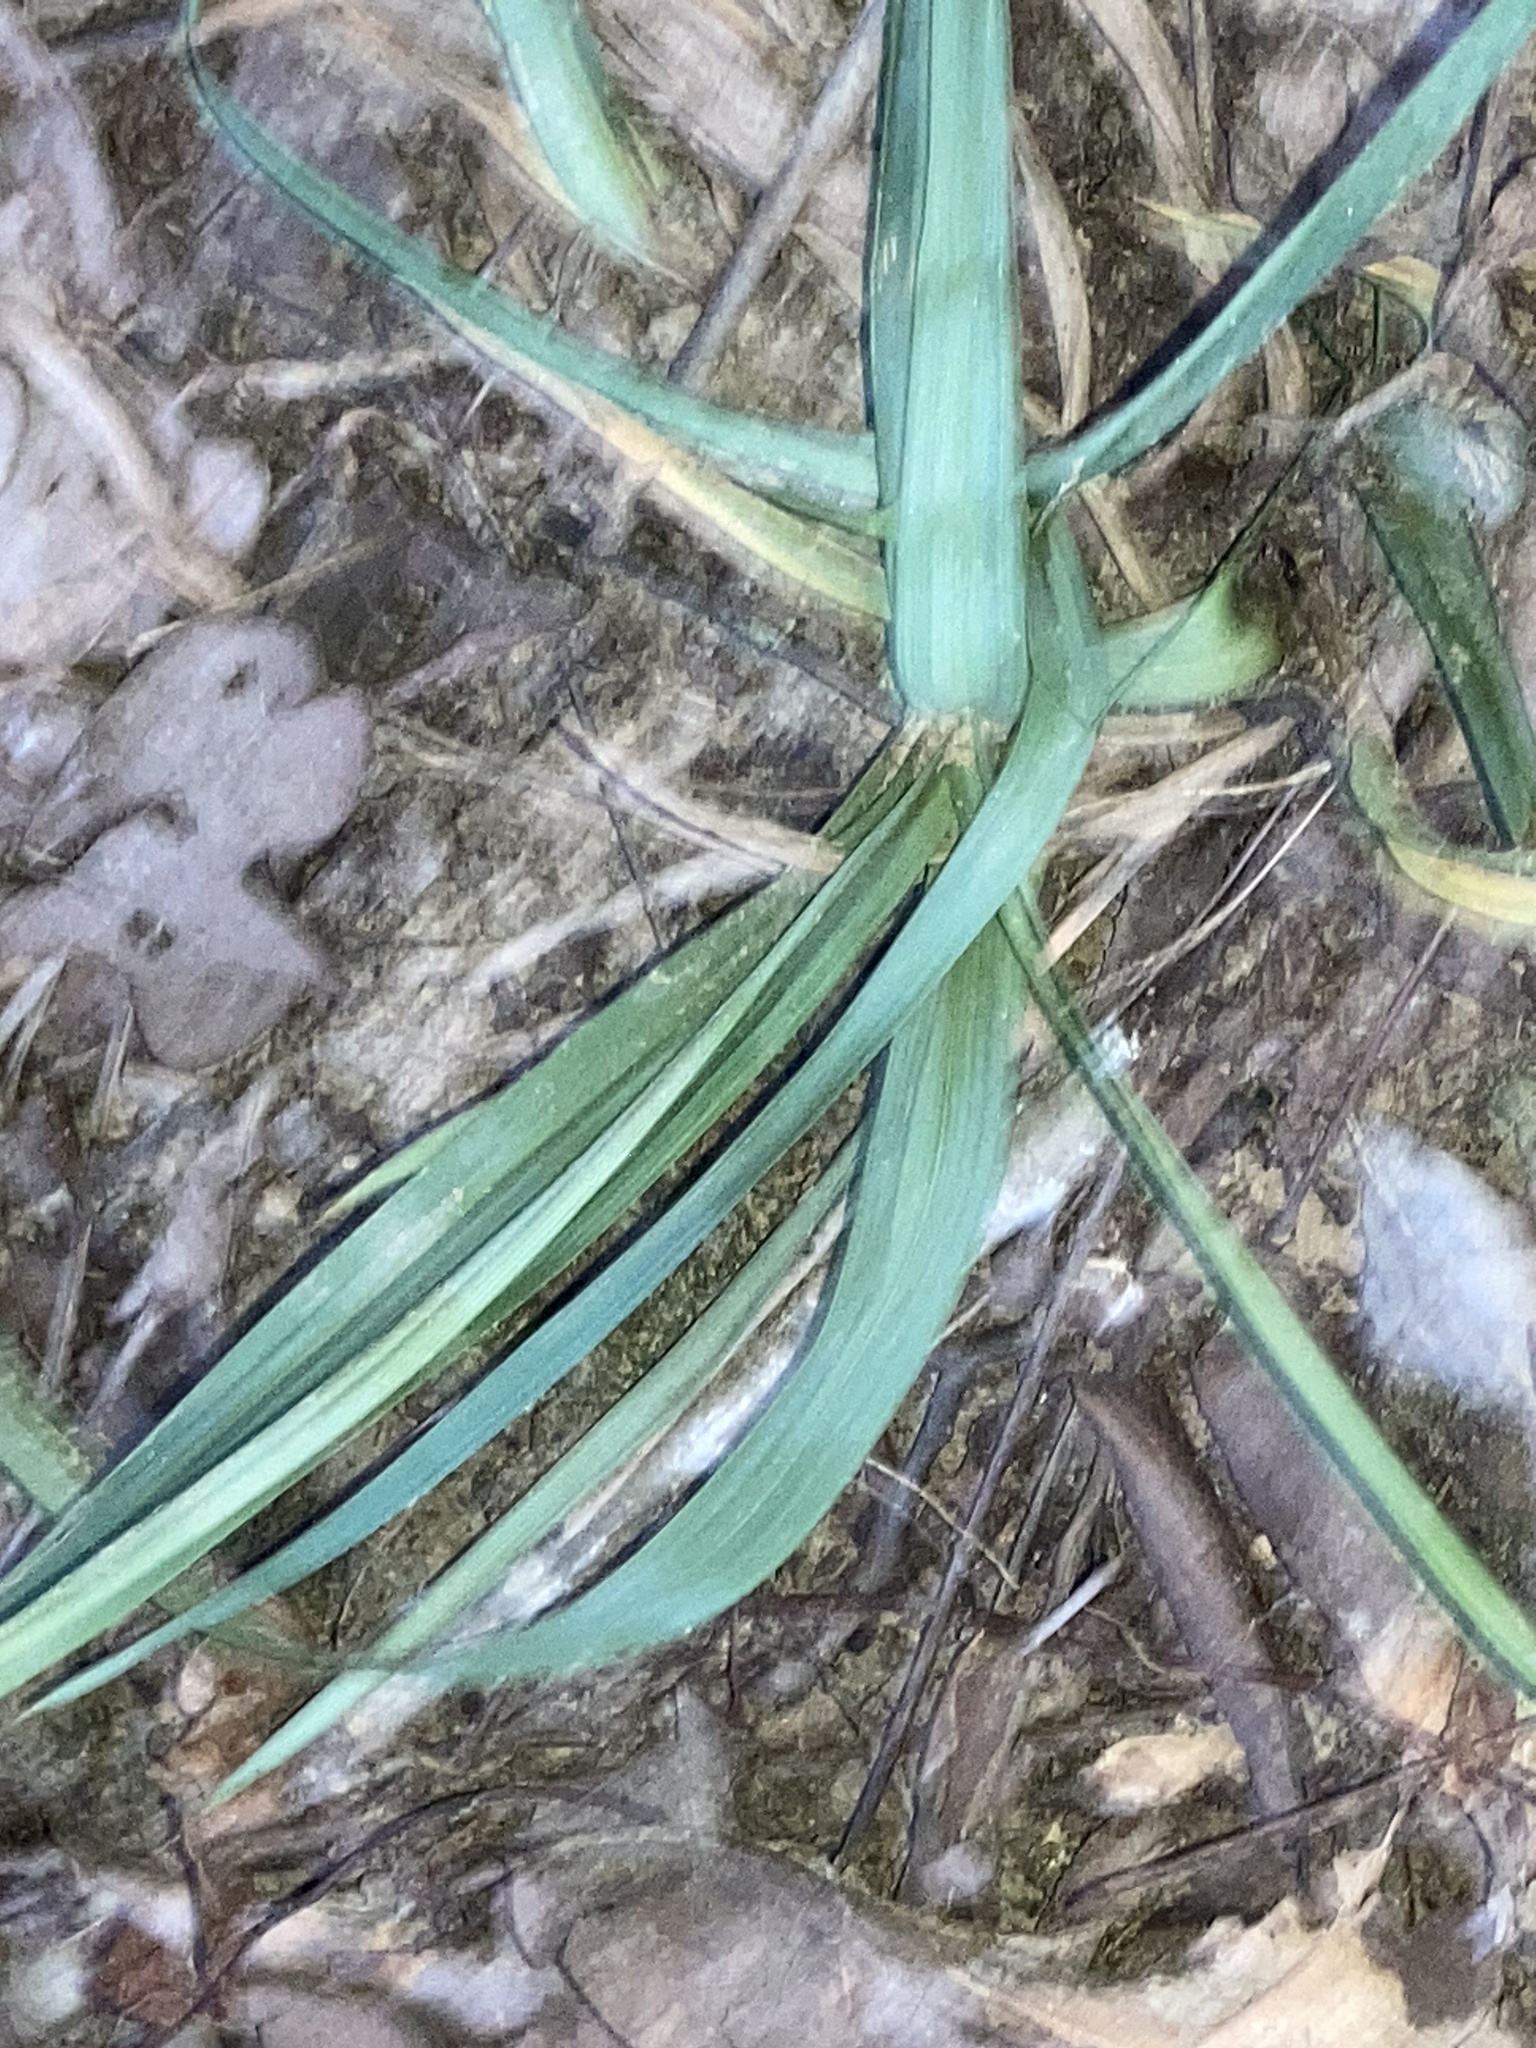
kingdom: Plantae
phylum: Tracheophyta
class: Liliopsida
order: Poales
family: Cyperaceae
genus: Carex
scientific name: Carex glaucodea
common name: Blue sedge
